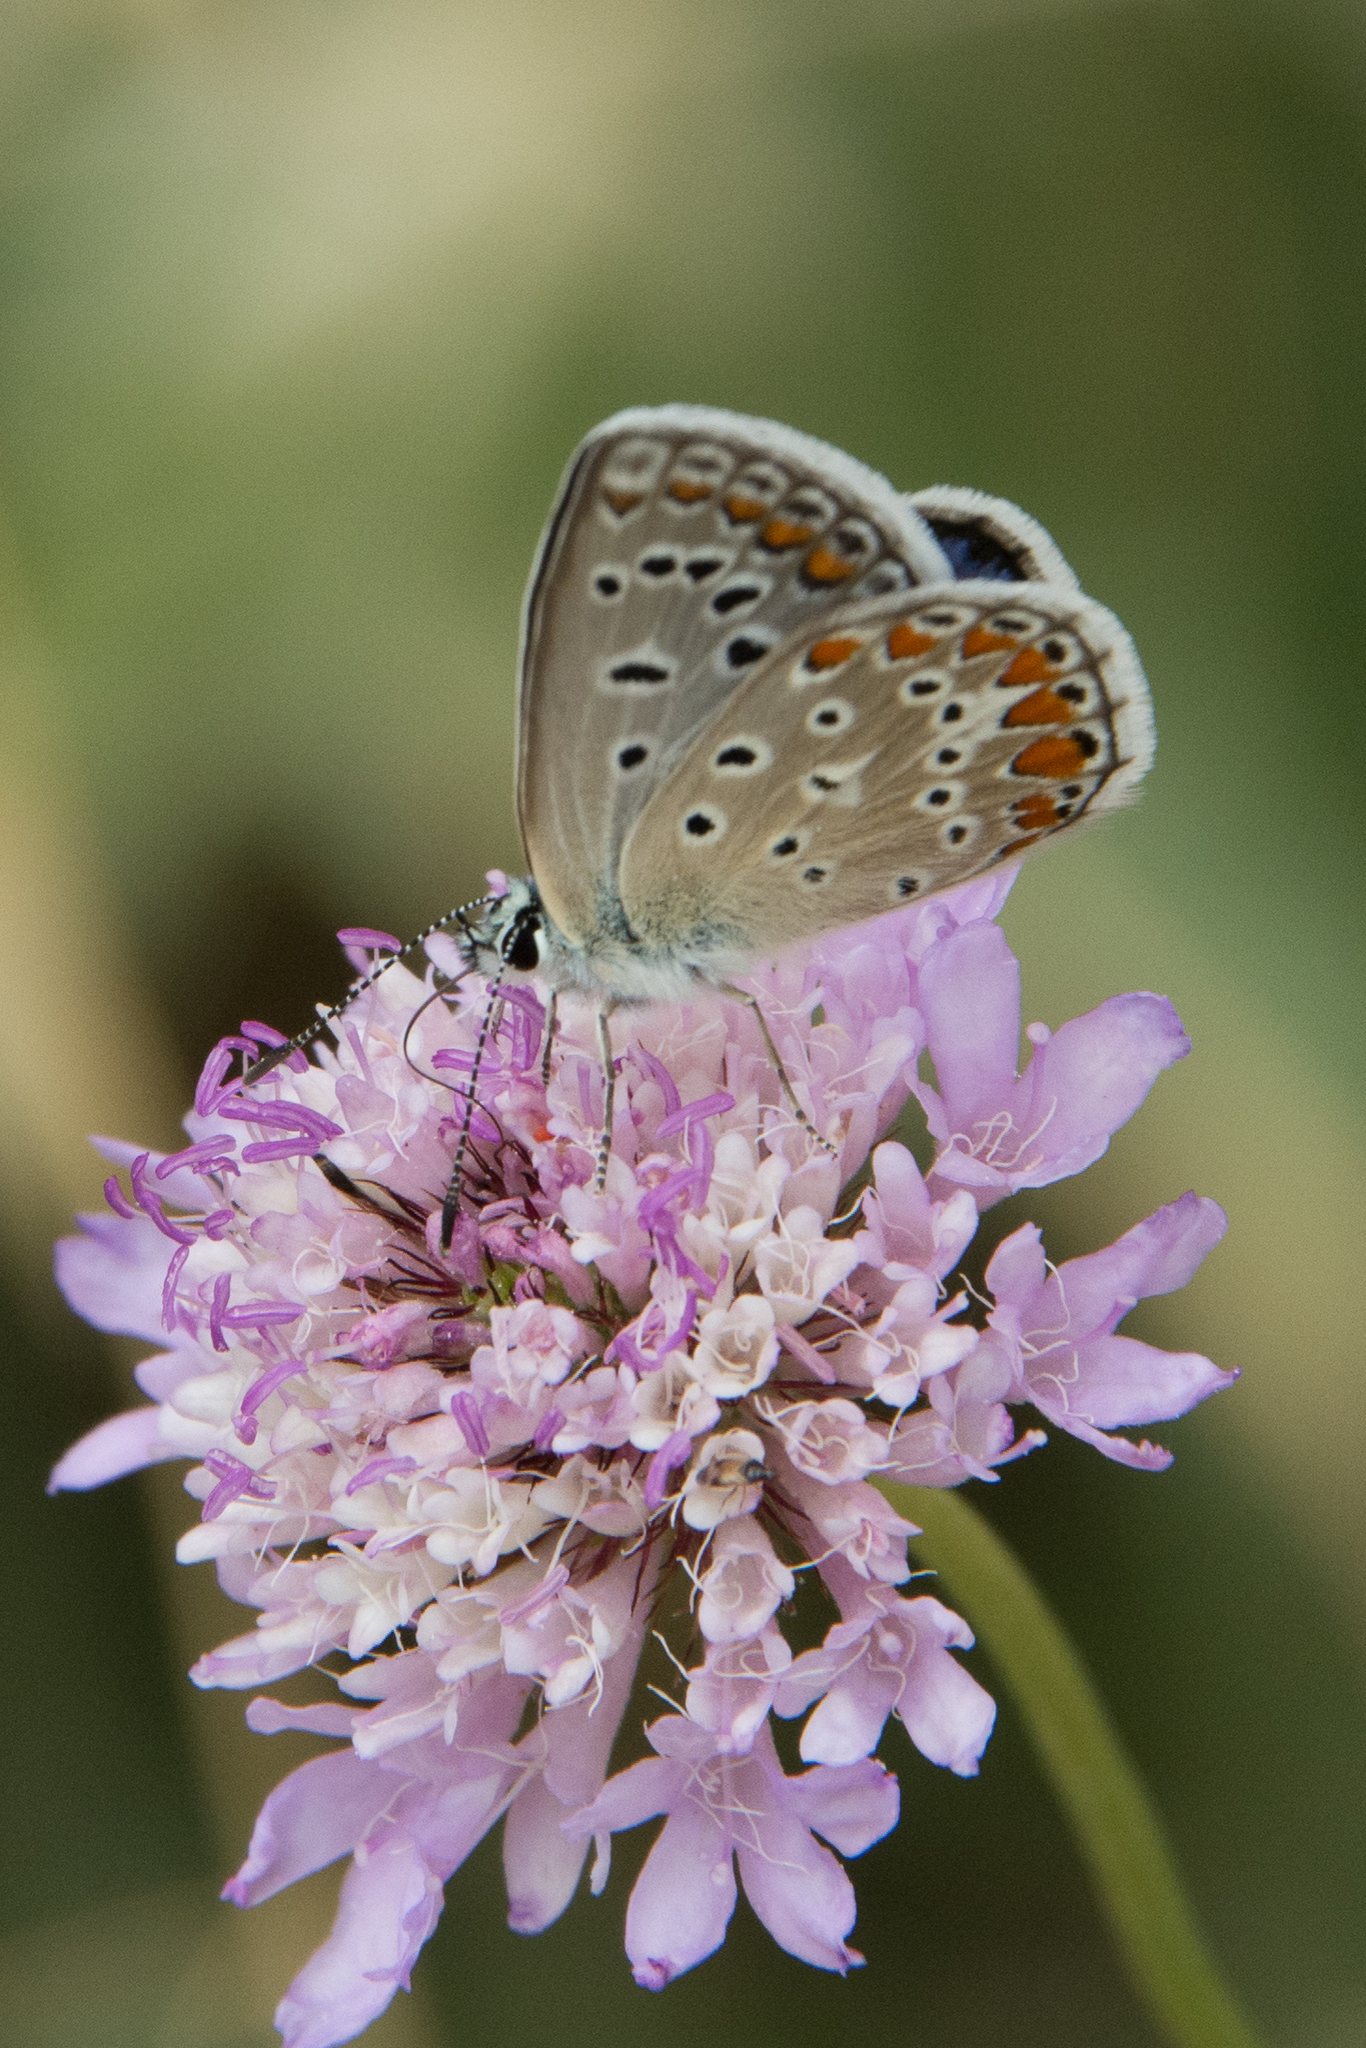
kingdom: Animalia
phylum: Arthropoda
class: Insecta
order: Lepidoptera
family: Lycaenidae
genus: Polyommatus
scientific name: Polyommatus celina
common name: Austaut's blue
